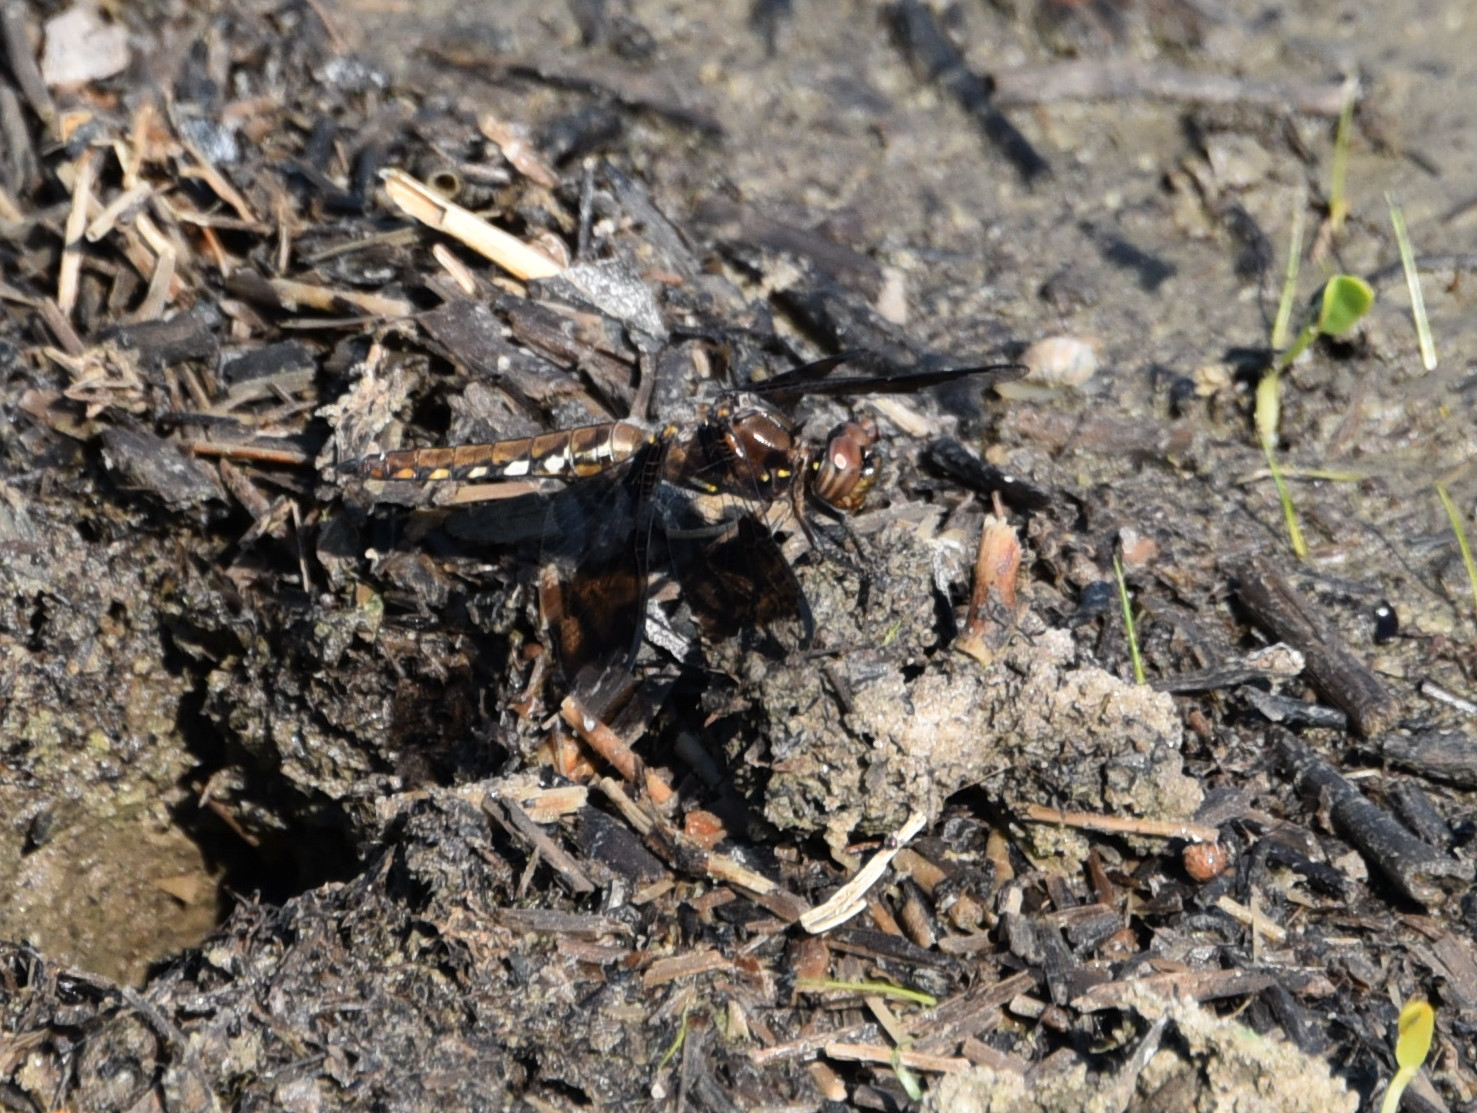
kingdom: Animalia
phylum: Arthropoda
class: Insecta
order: Odonata
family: Libellulidae
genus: Plathemis
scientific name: Plathemis lydia
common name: Common whitetail
